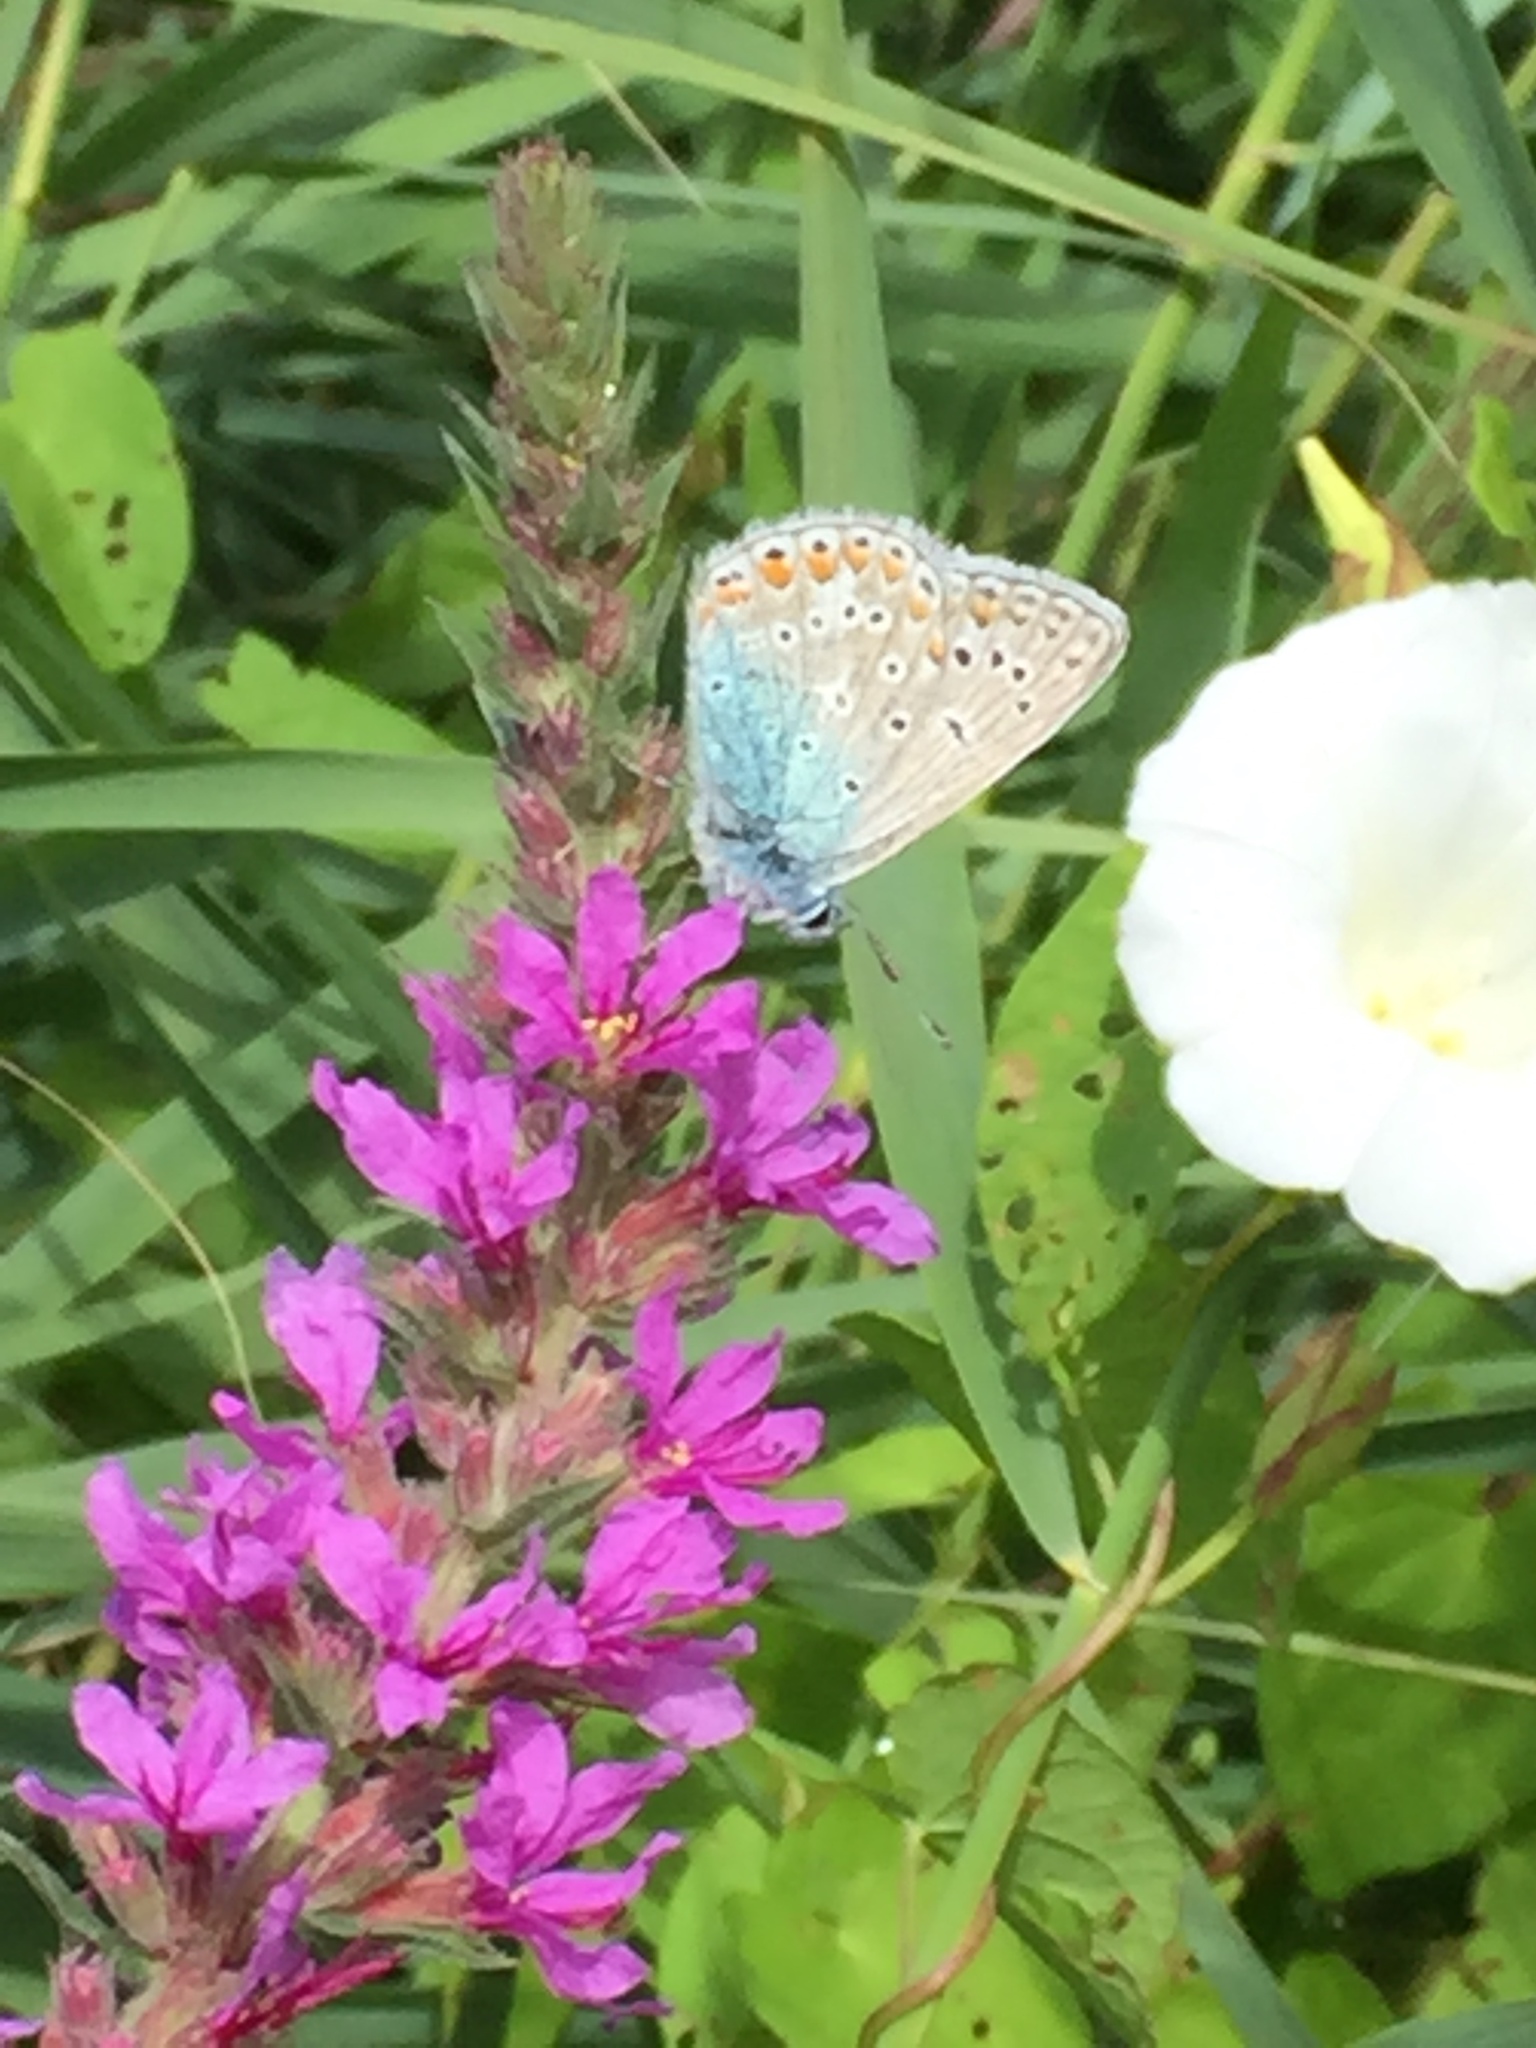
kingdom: Plantae
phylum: Tracheophyta
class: Magnoliopsida
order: Myrtales
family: Lythraceae
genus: Lythrum
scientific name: Lythrum salicaria
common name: Purple loosestrife
